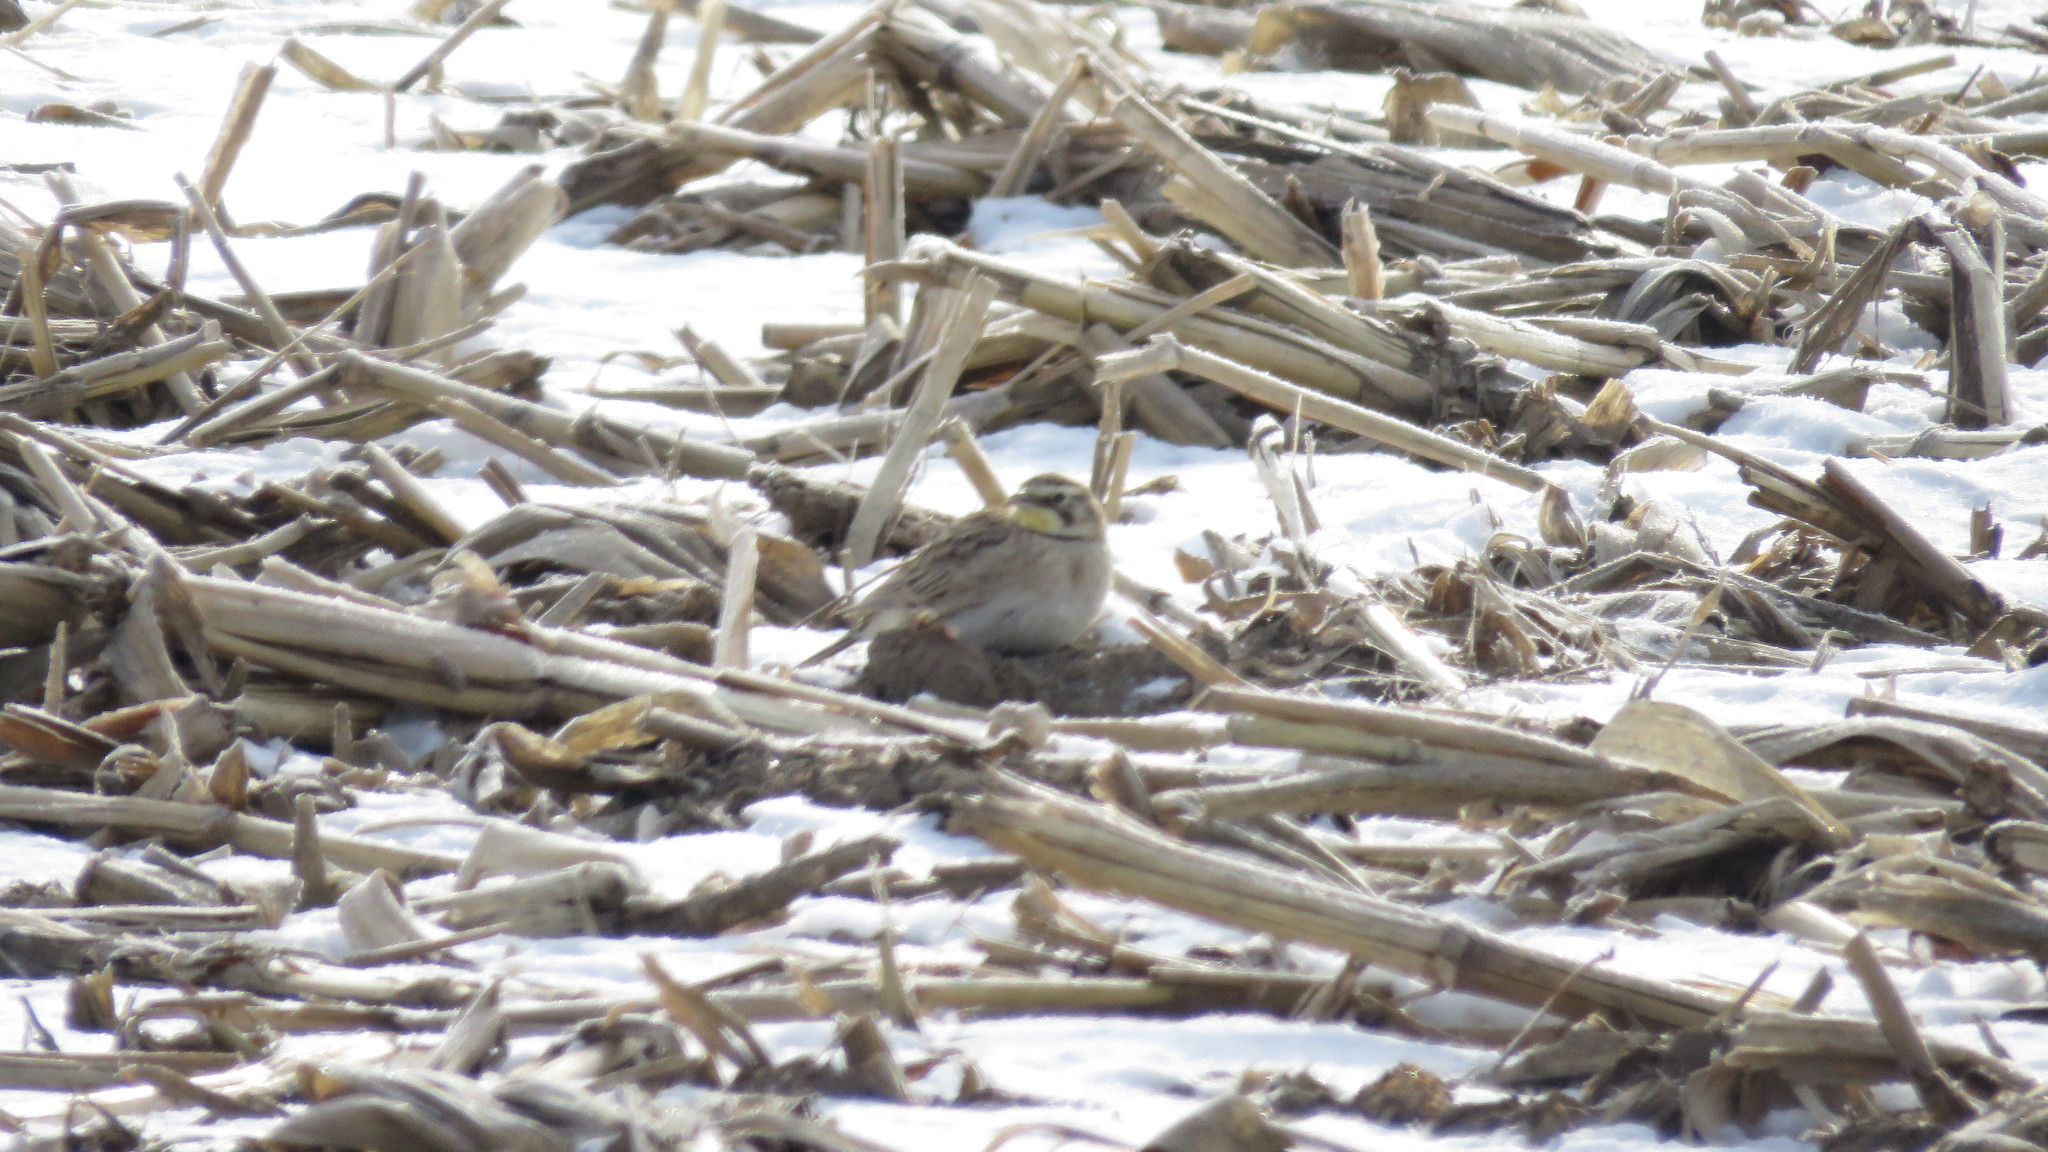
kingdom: Animalia
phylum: Chordata
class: Aves
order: Passeriformes
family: Alaudidae
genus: Eremophila
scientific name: Eremophila alpestris
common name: Horned lark
